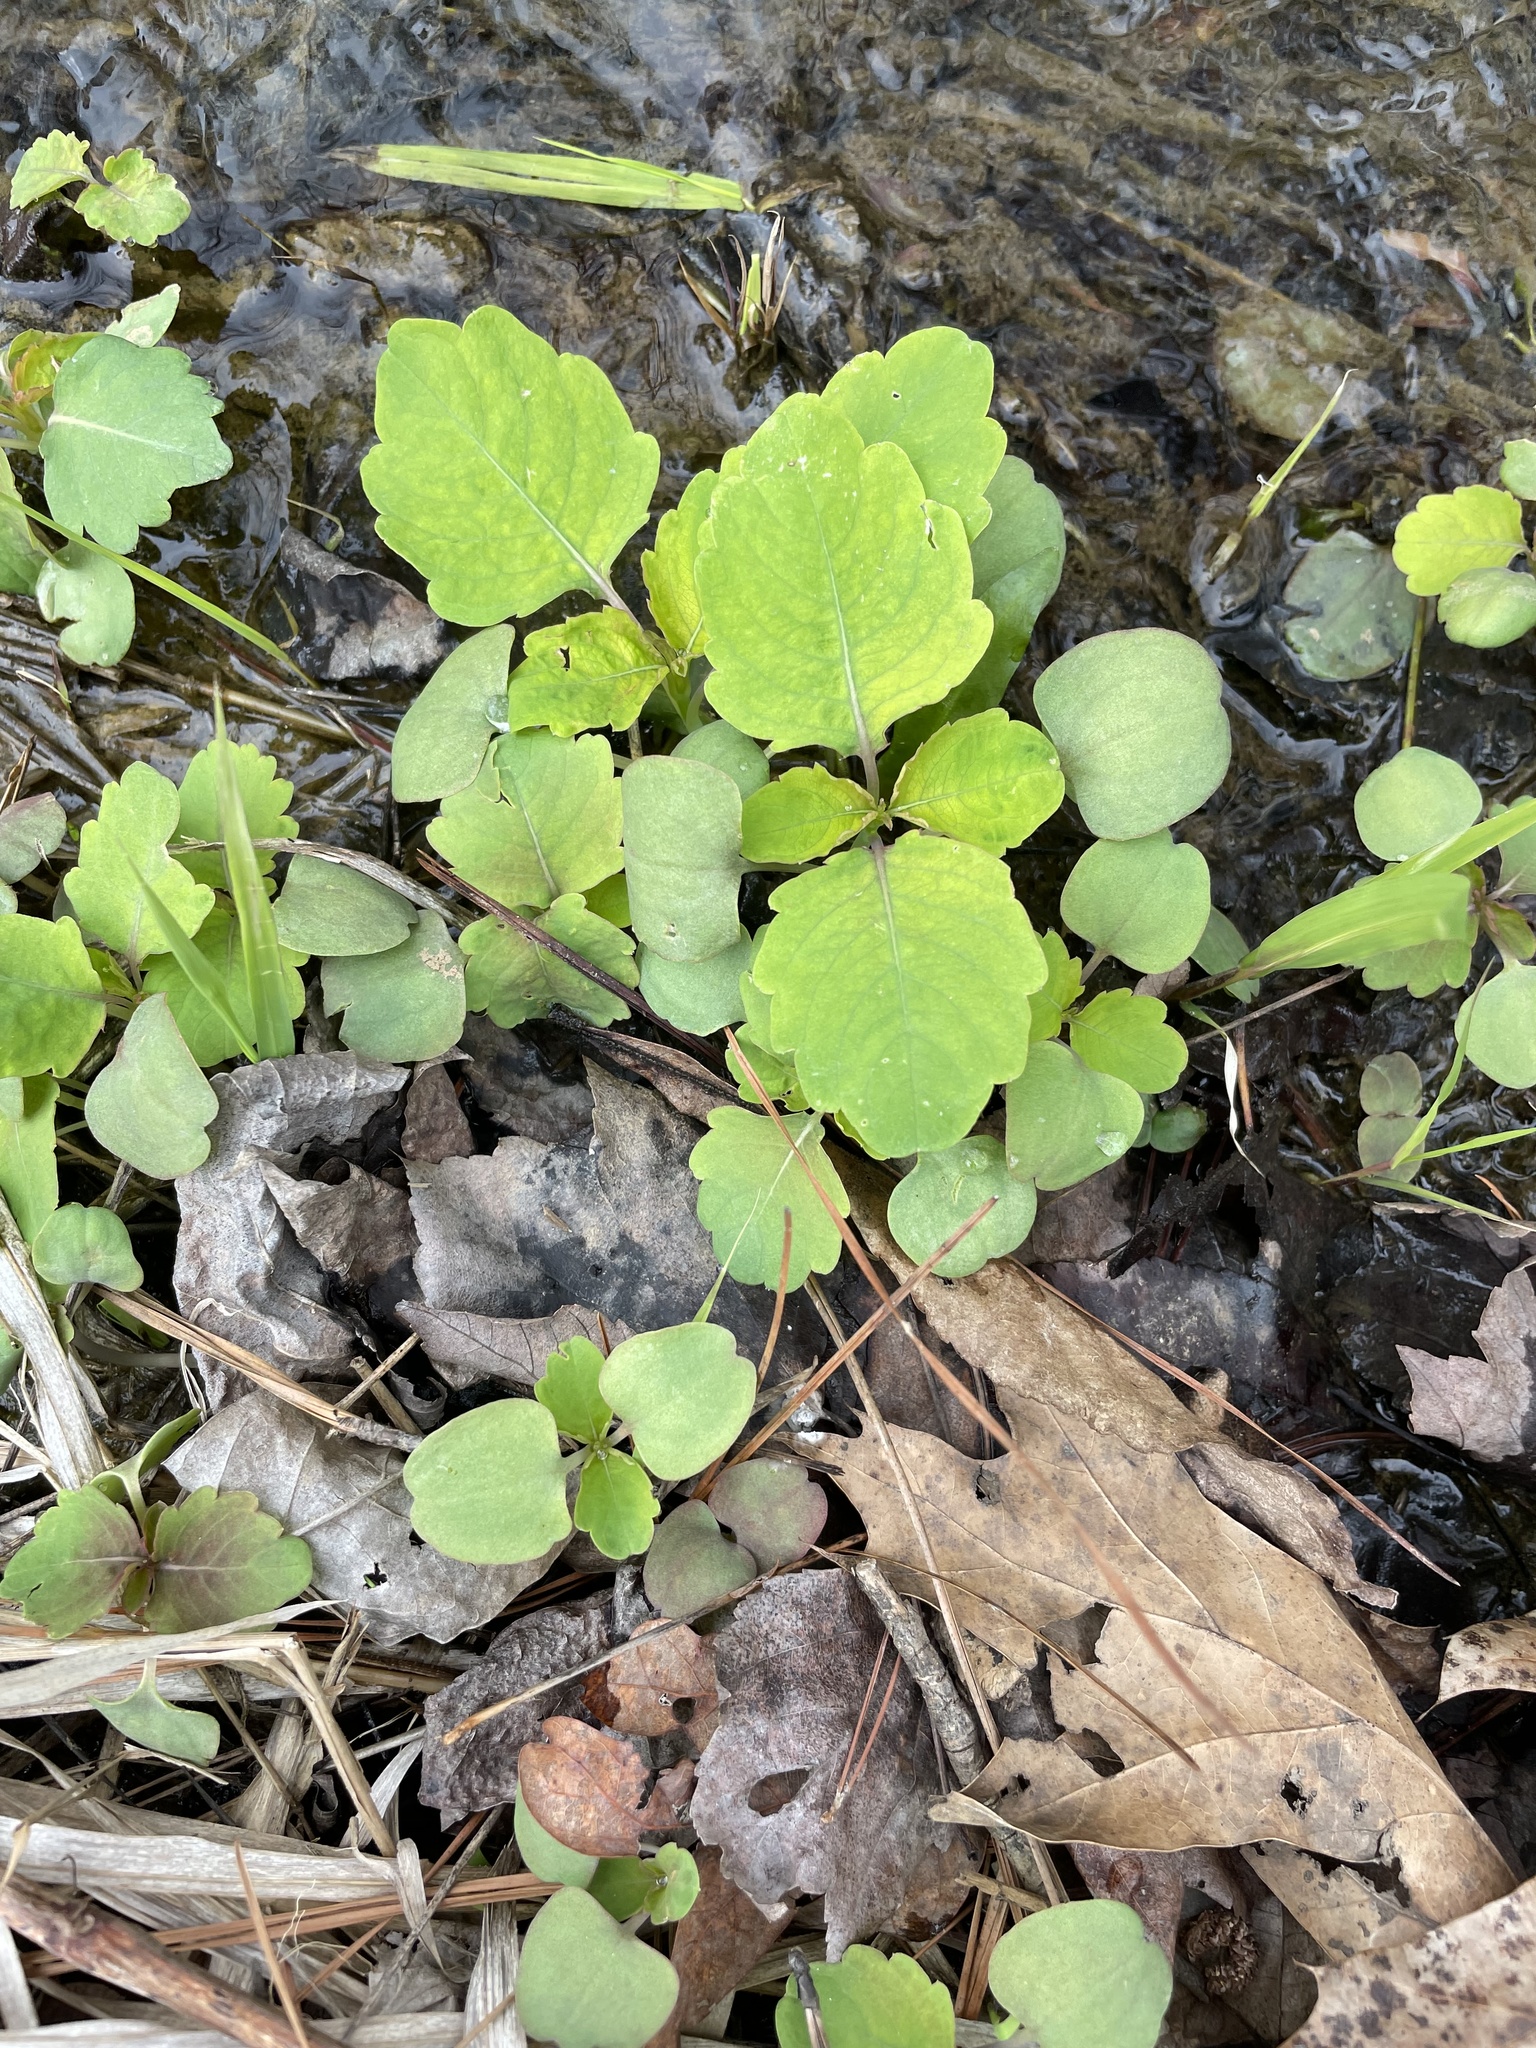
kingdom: Plantae
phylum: Tracheophyta
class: Magnoliopsida
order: Ericales
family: Balsaminaceae
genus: Impatiens
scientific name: Impatiens capensis
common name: Orange balsam
